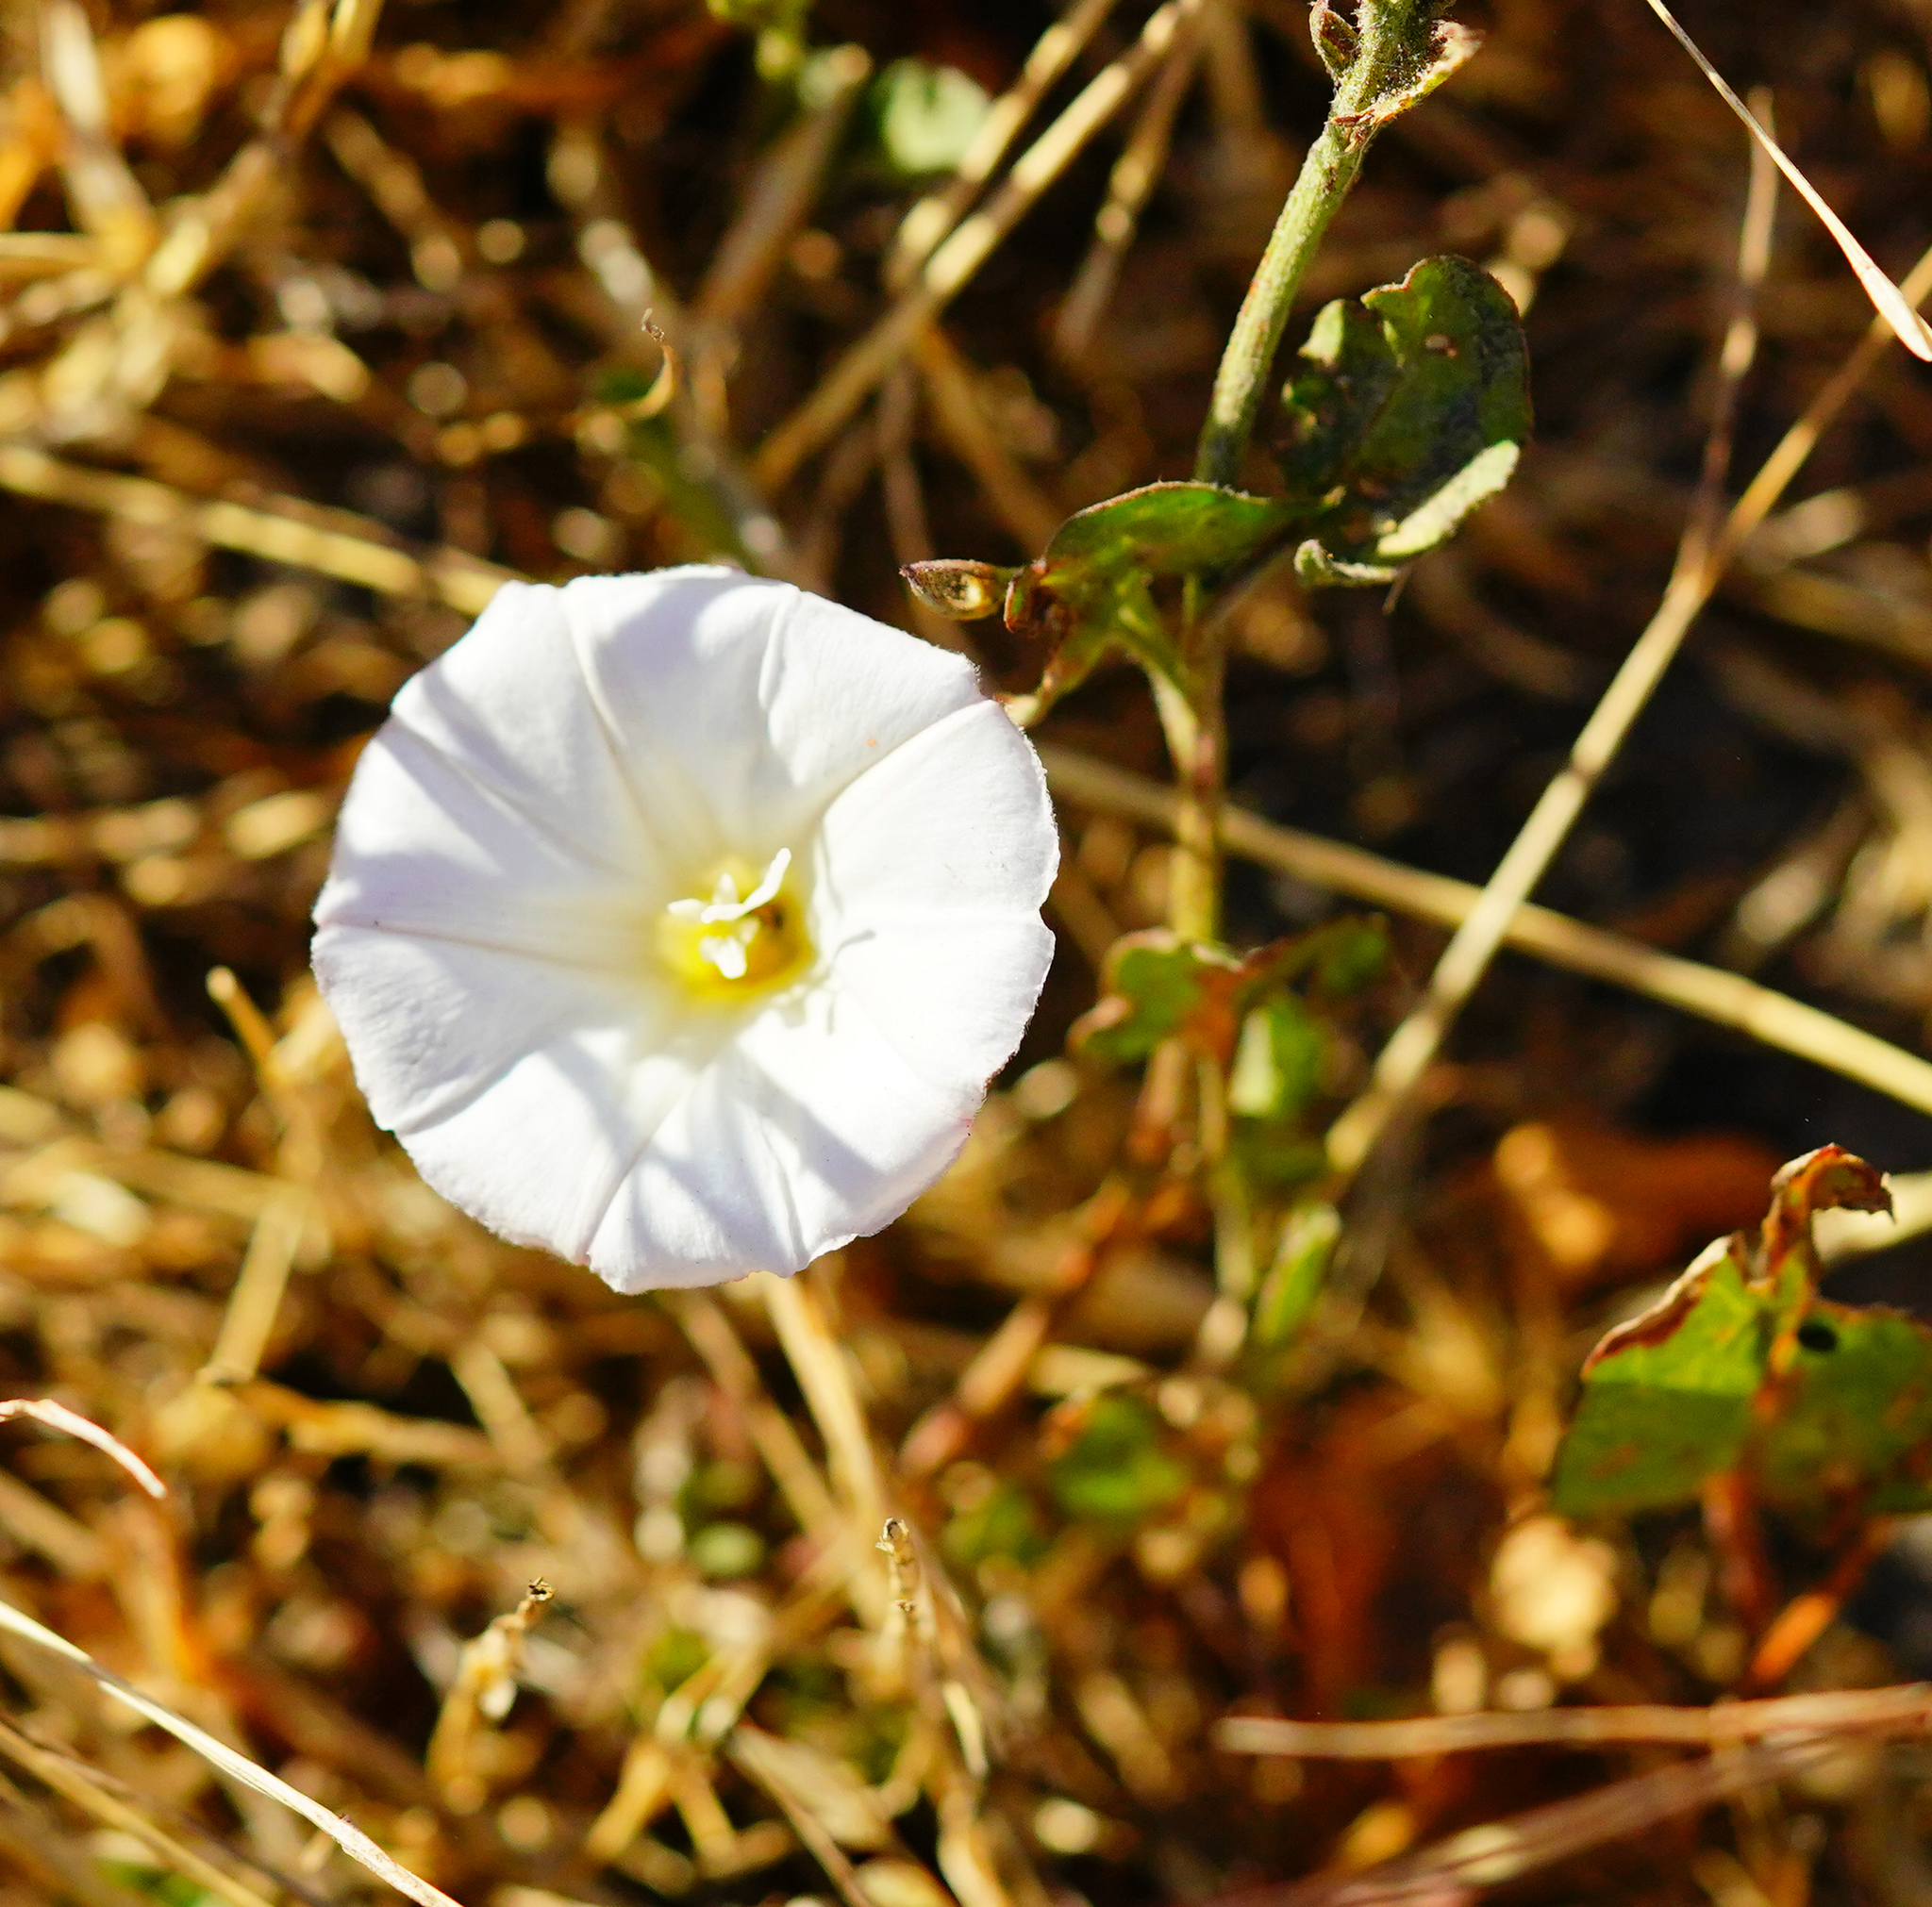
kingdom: Plantae
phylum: Tracheophyta
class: Magnoliopsida
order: Solanales
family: Convolvulaceae
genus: Convolvulus
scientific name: Convolvulus arvensis
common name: Field bindweed
